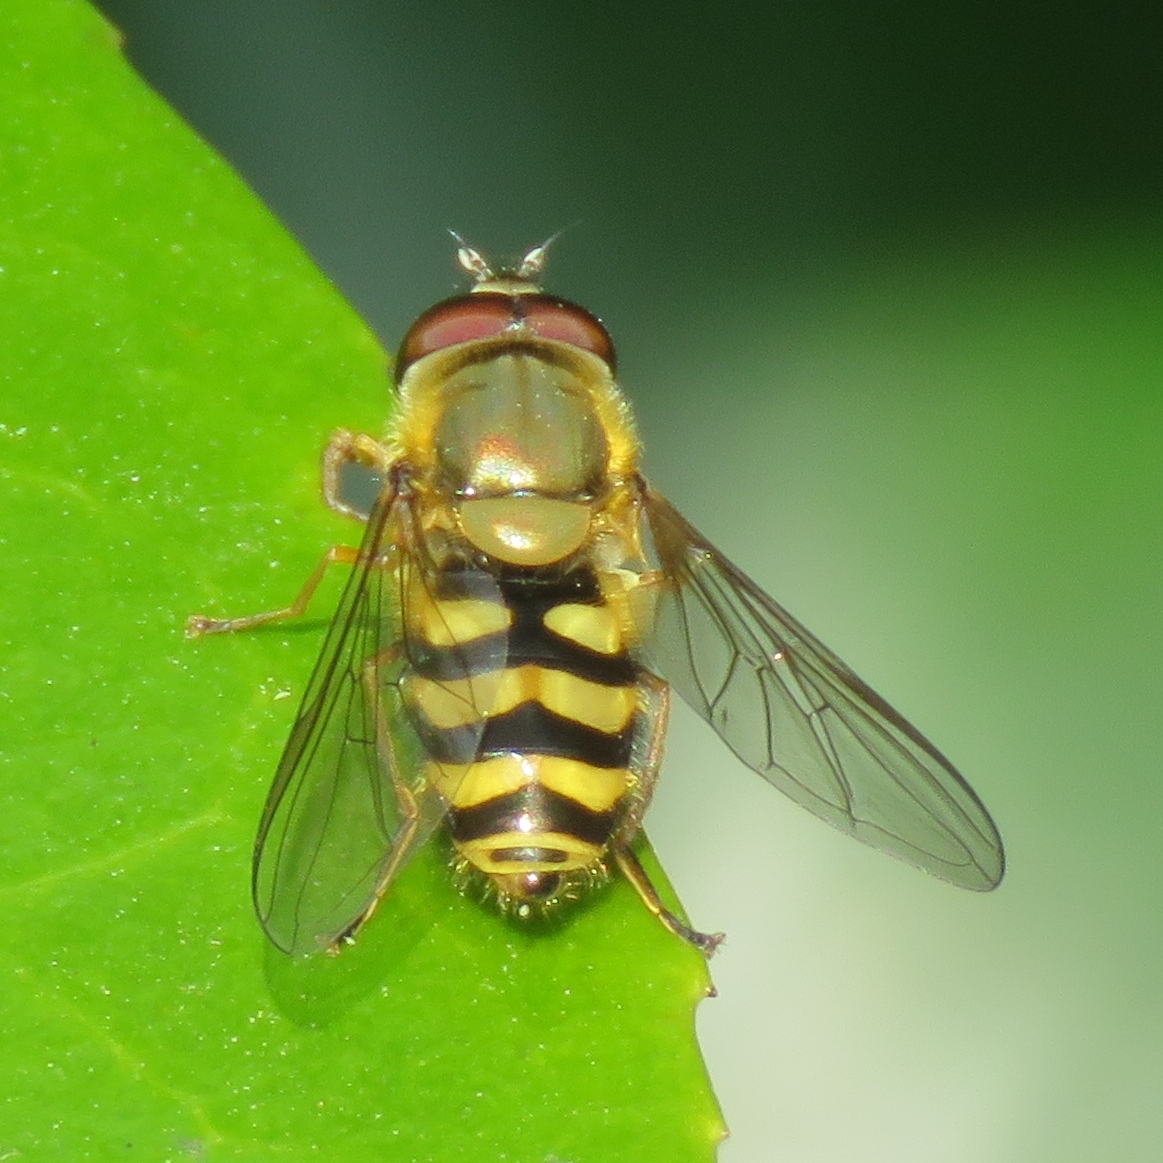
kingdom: Animalia
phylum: Arthropoda
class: Insecta
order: Diptera
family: Syrphidae
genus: Syrphus
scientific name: Syrphus
